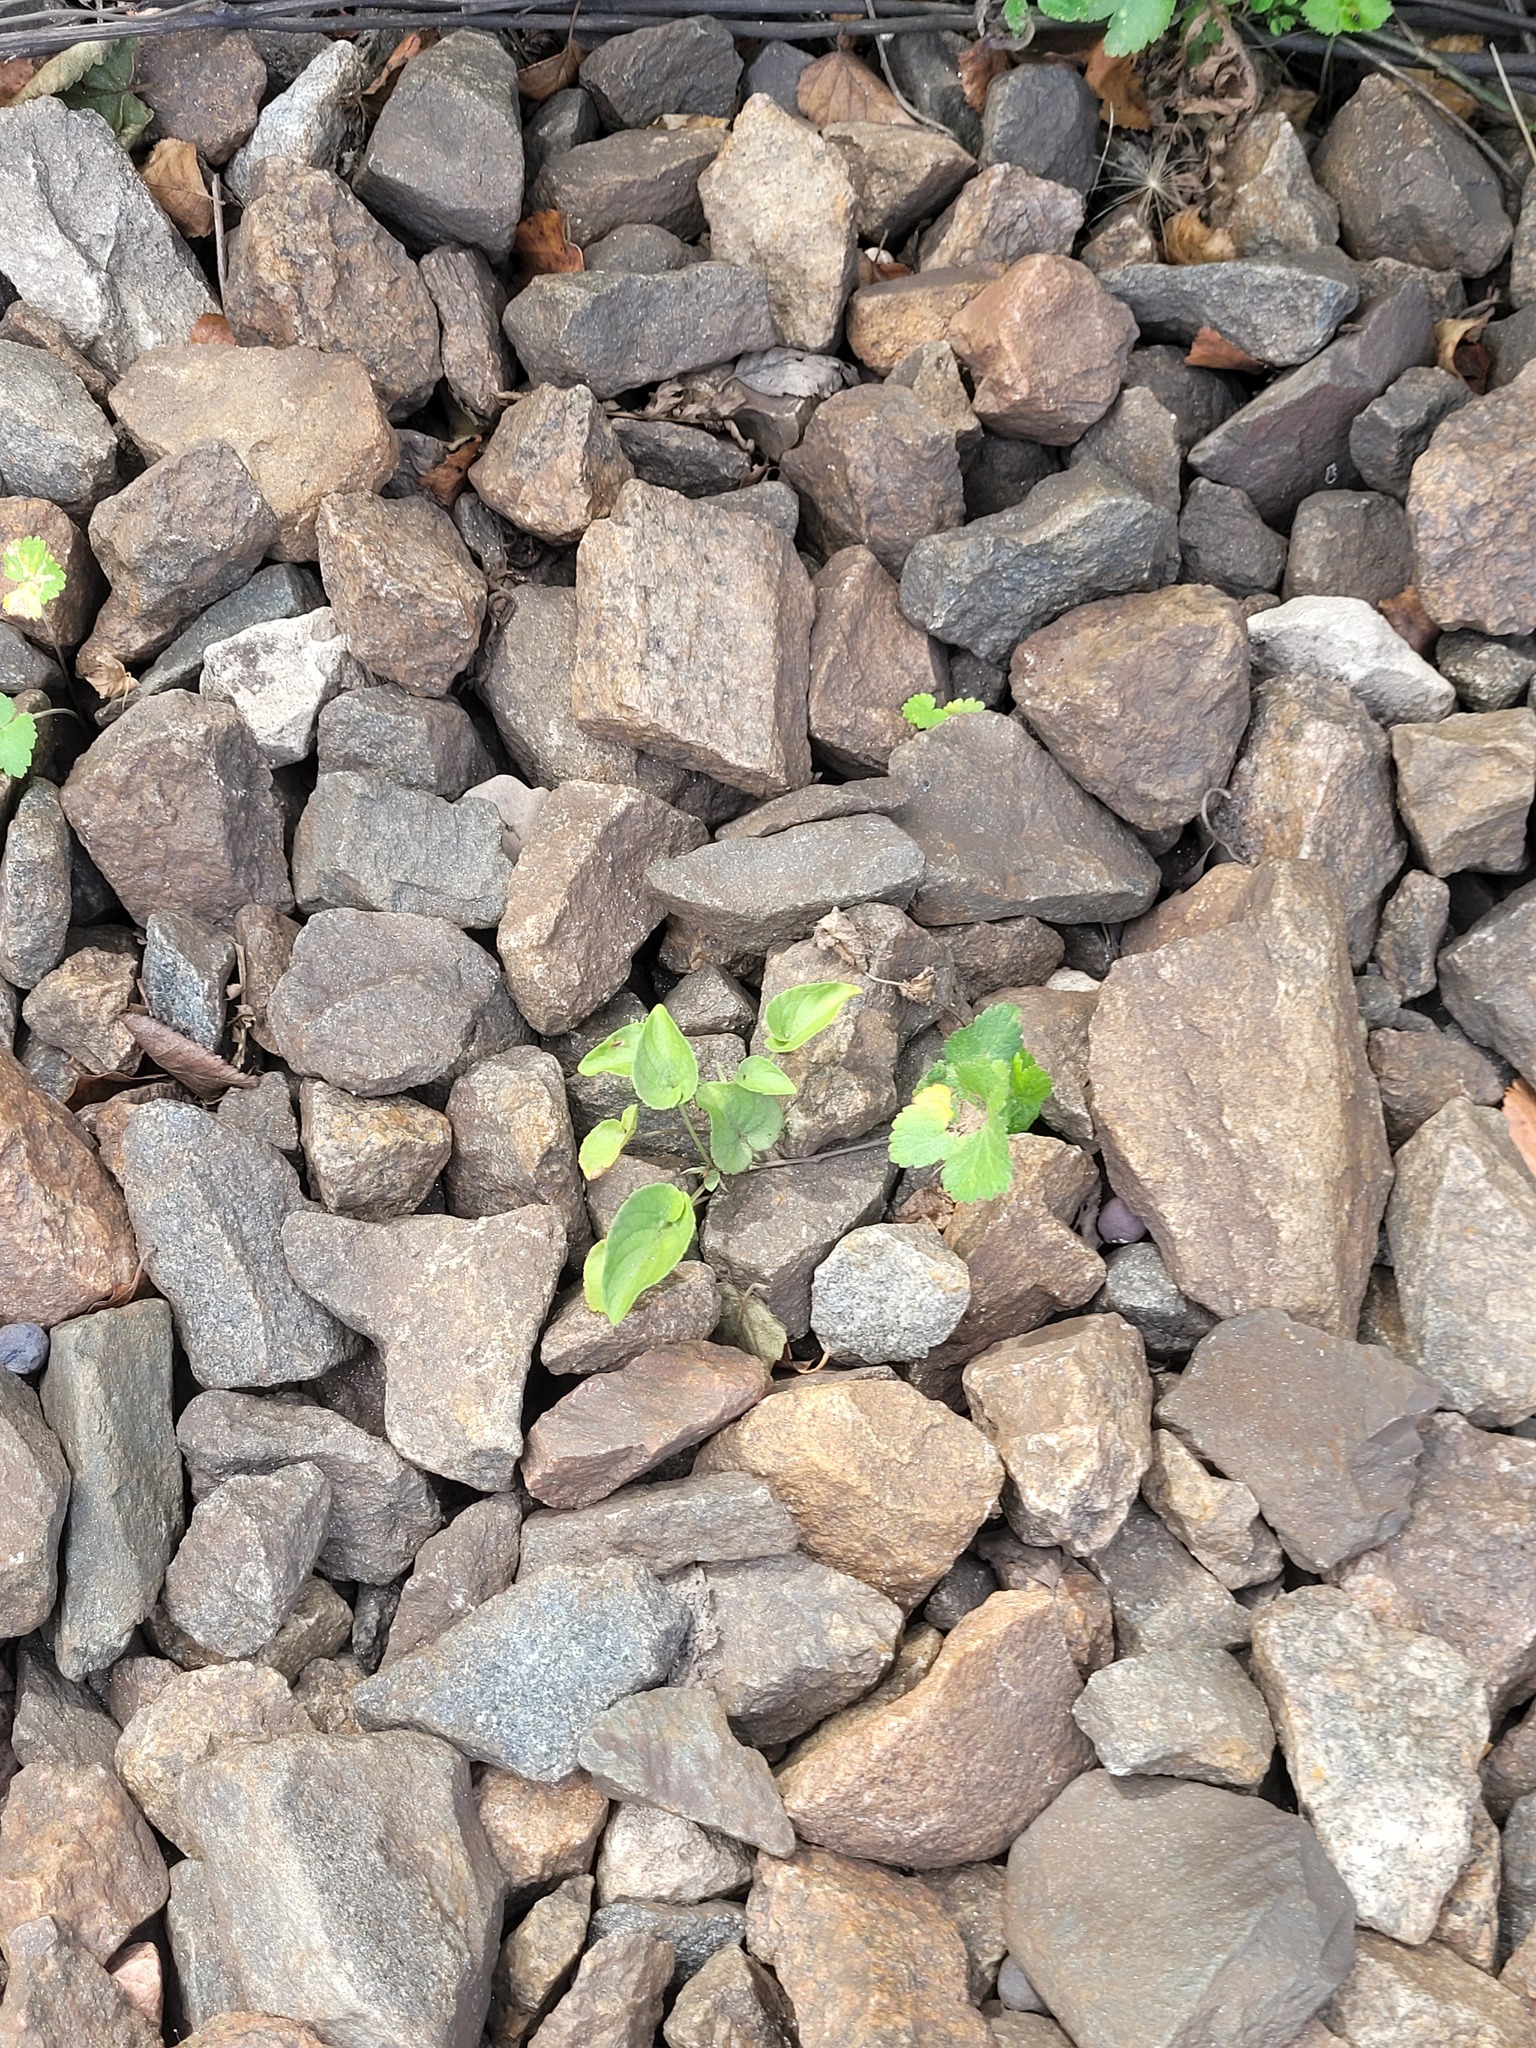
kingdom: Plantae
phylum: Tracheophyta
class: Magnoliopsida
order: Malpighiales
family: Violaceae
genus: Viola
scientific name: Viola canina
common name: Heath dog-violet
